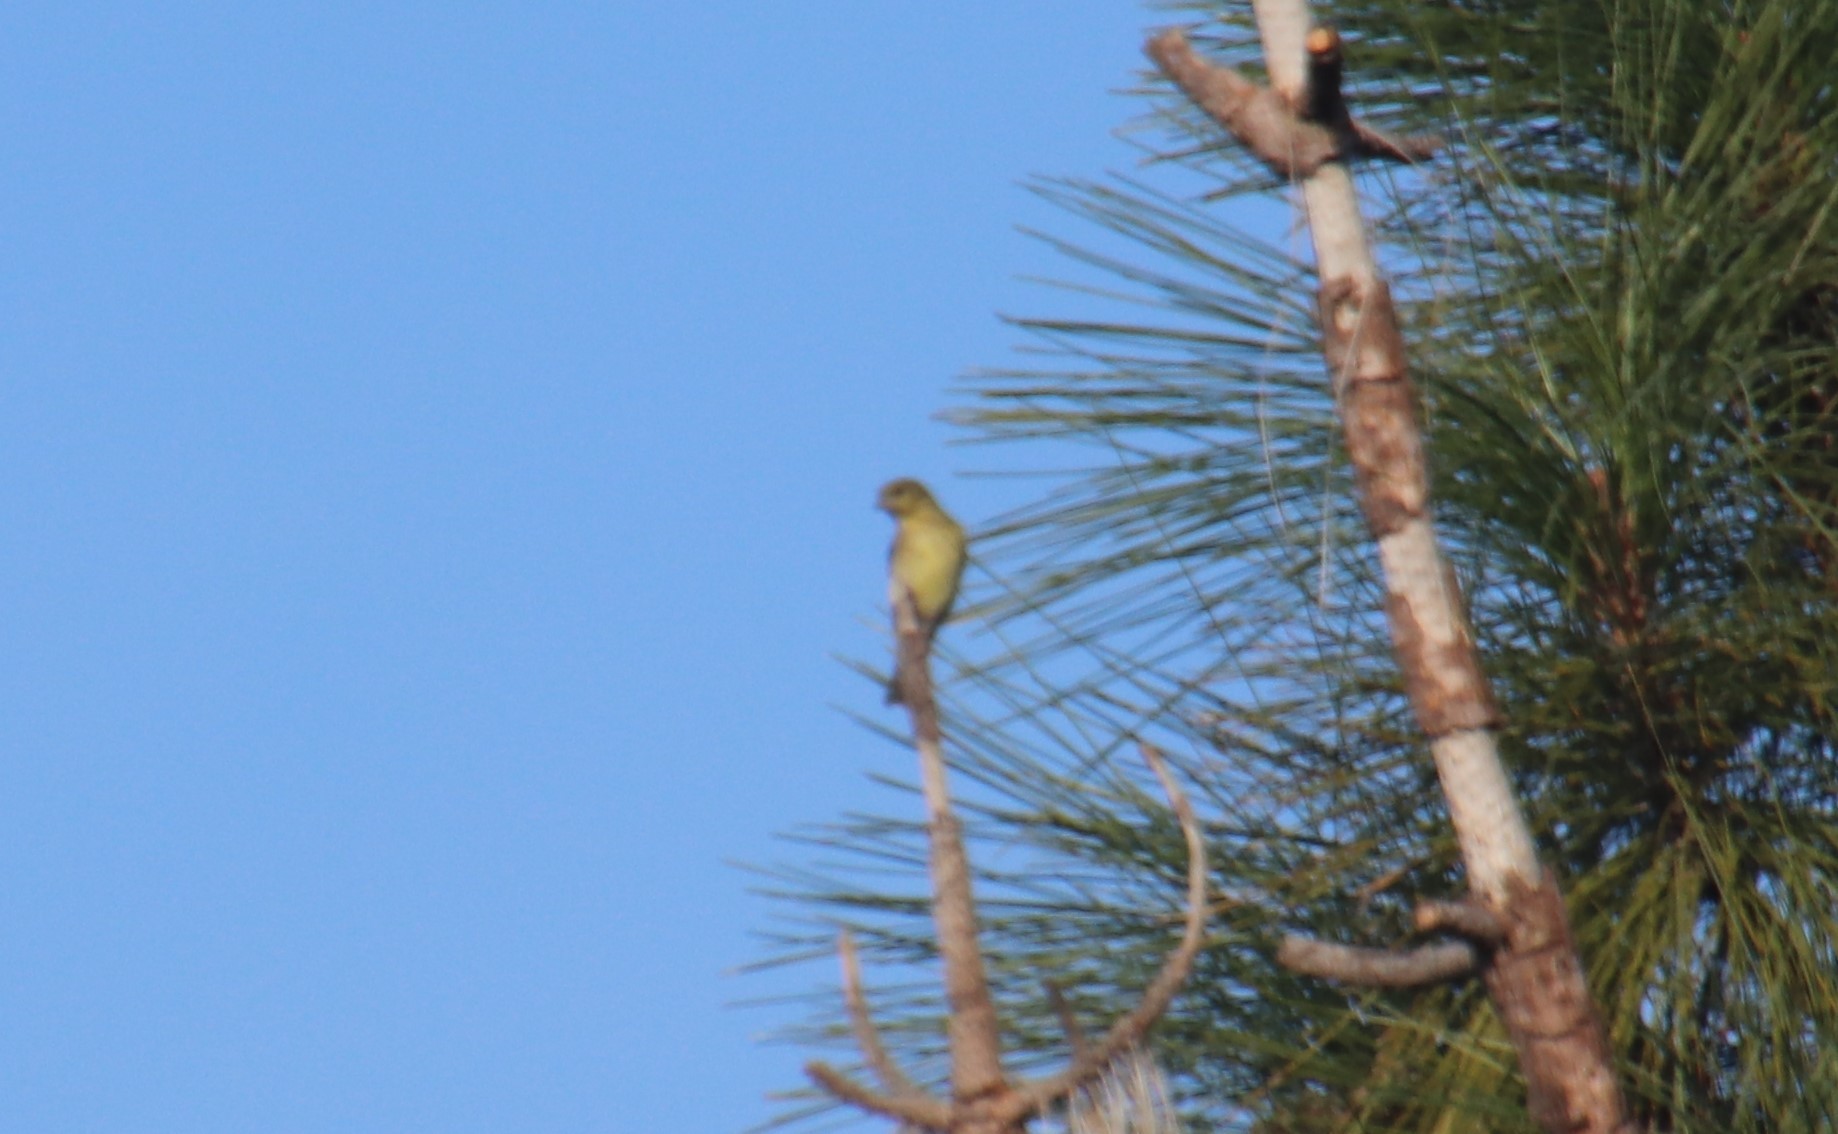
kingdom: Animalia
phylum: Chordata
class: Aves
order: Passeriformes
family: Fringillidae
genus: Spinus
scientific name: Spinus psaltria
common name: Lesser goldfinch
